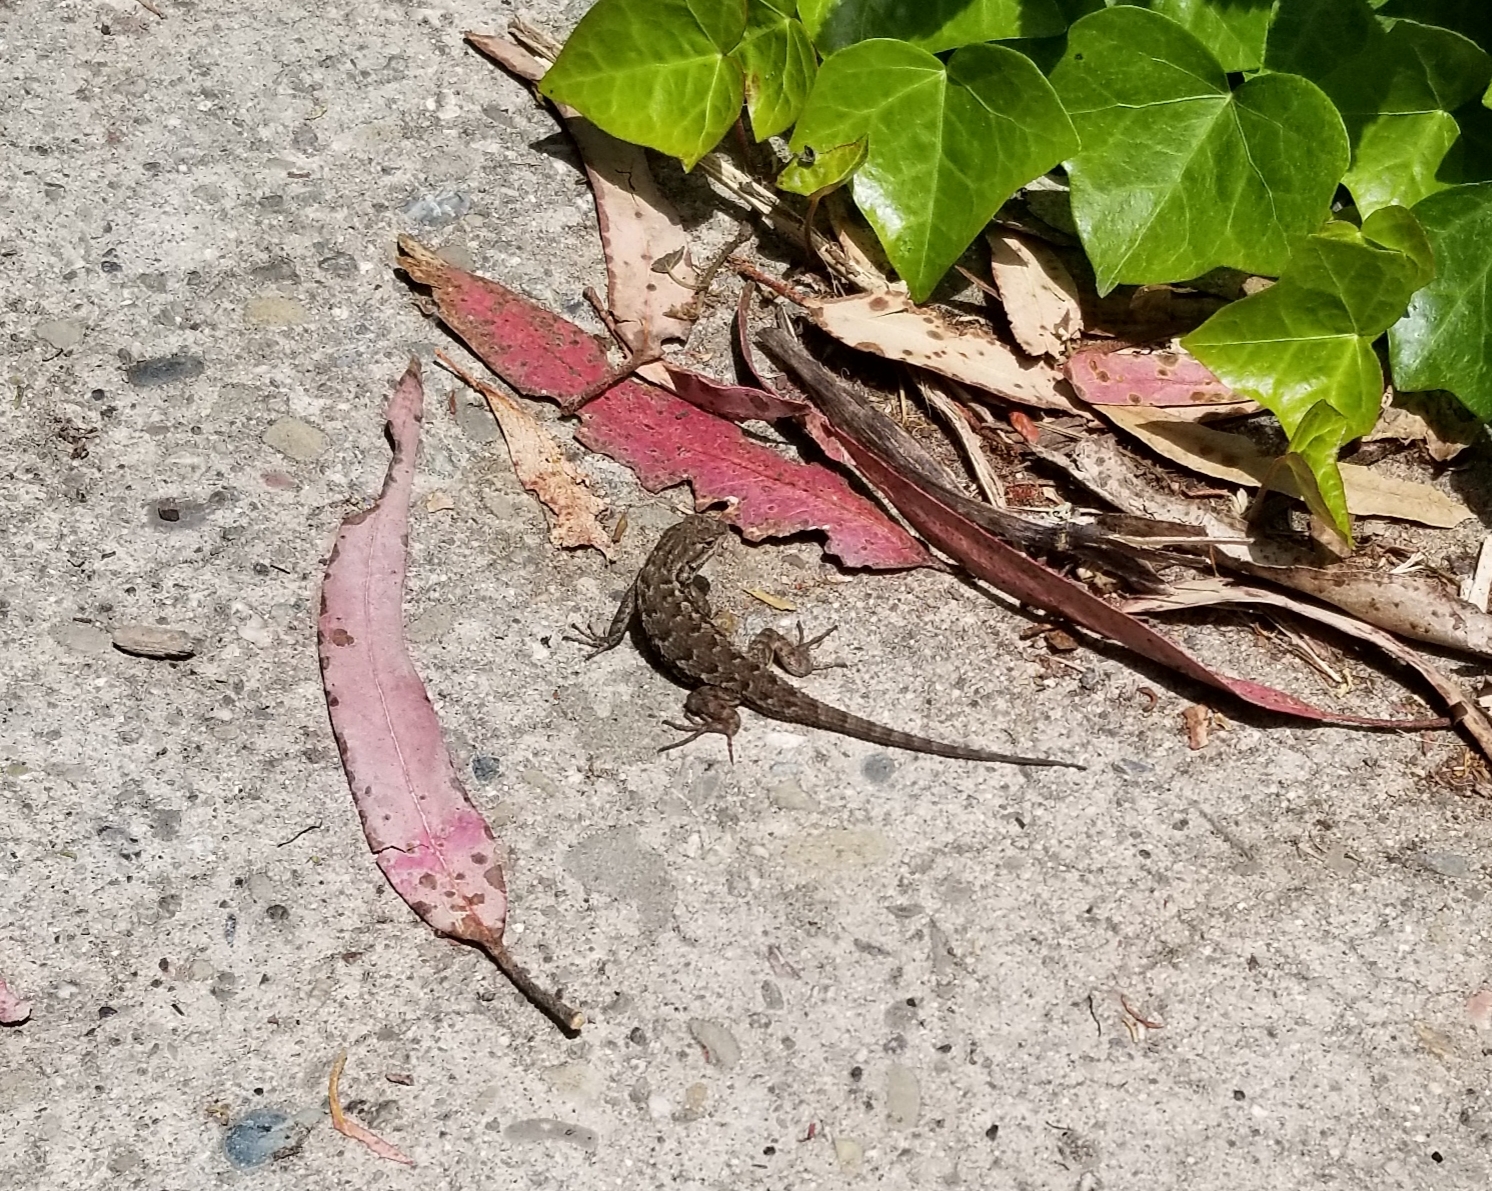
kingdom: Animalia
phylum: Chordata
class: Squamata
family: Phrynosomatidae
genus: Sceloporus
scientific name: Sceloporus occidentalis
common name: Western fence lizard
